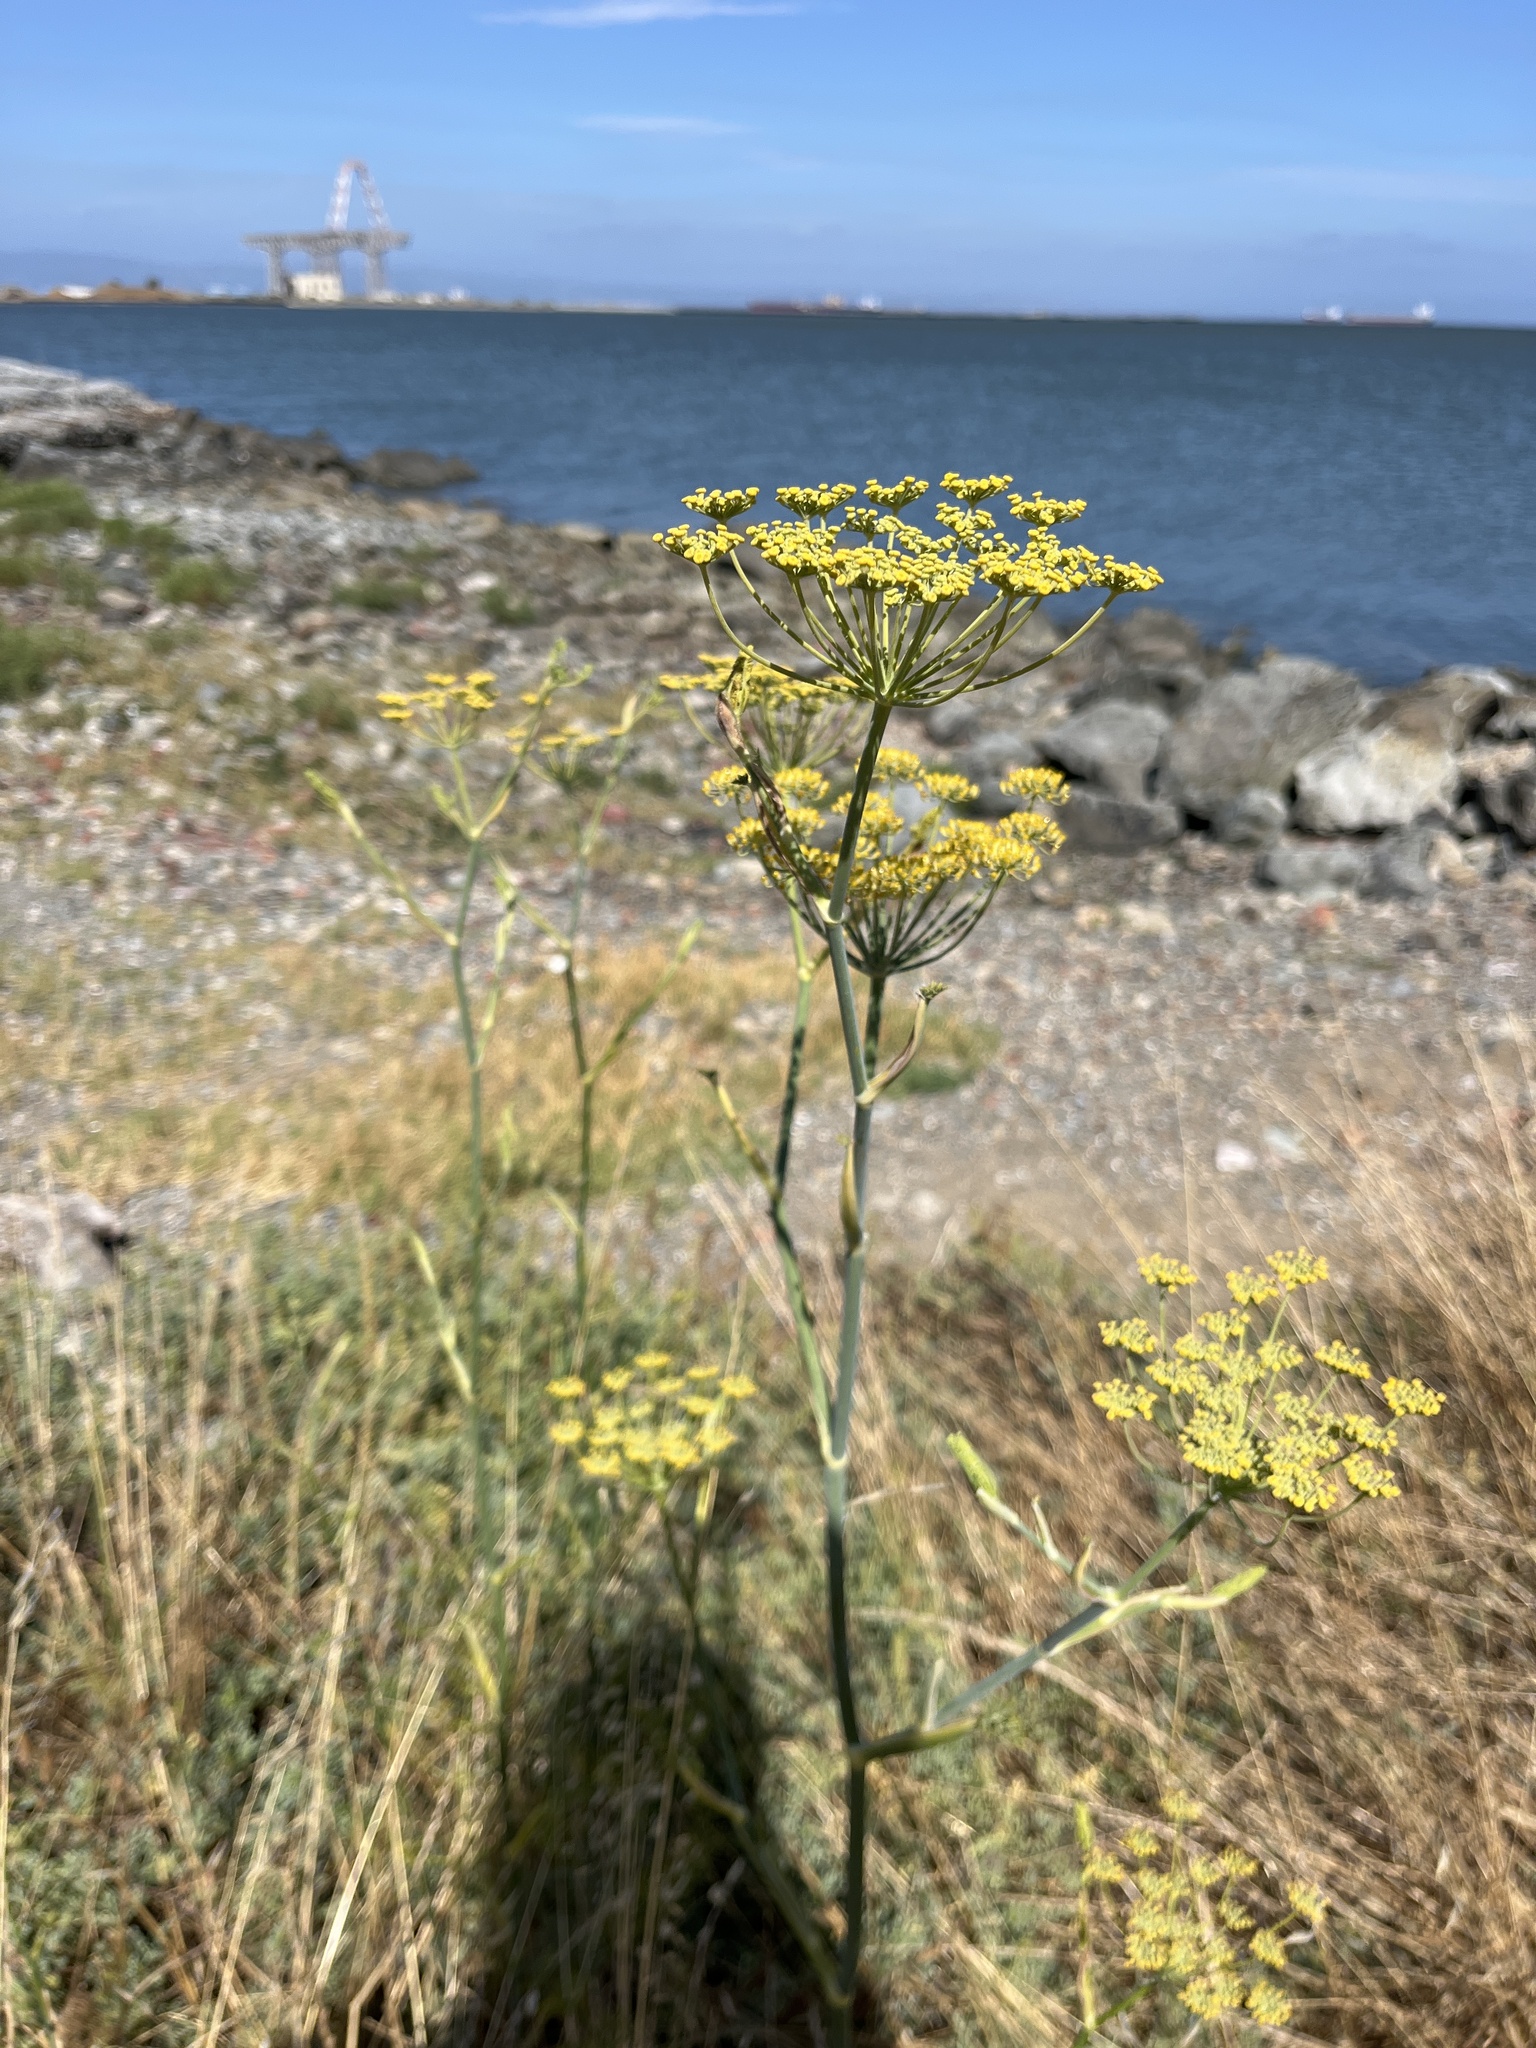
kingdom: Plantae
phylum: Tracheophyta
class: Magnoliopsida
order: Apiales
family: Apiaceae
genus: Foeniculum
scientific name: Foeniculum vulgare
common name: Fennel
